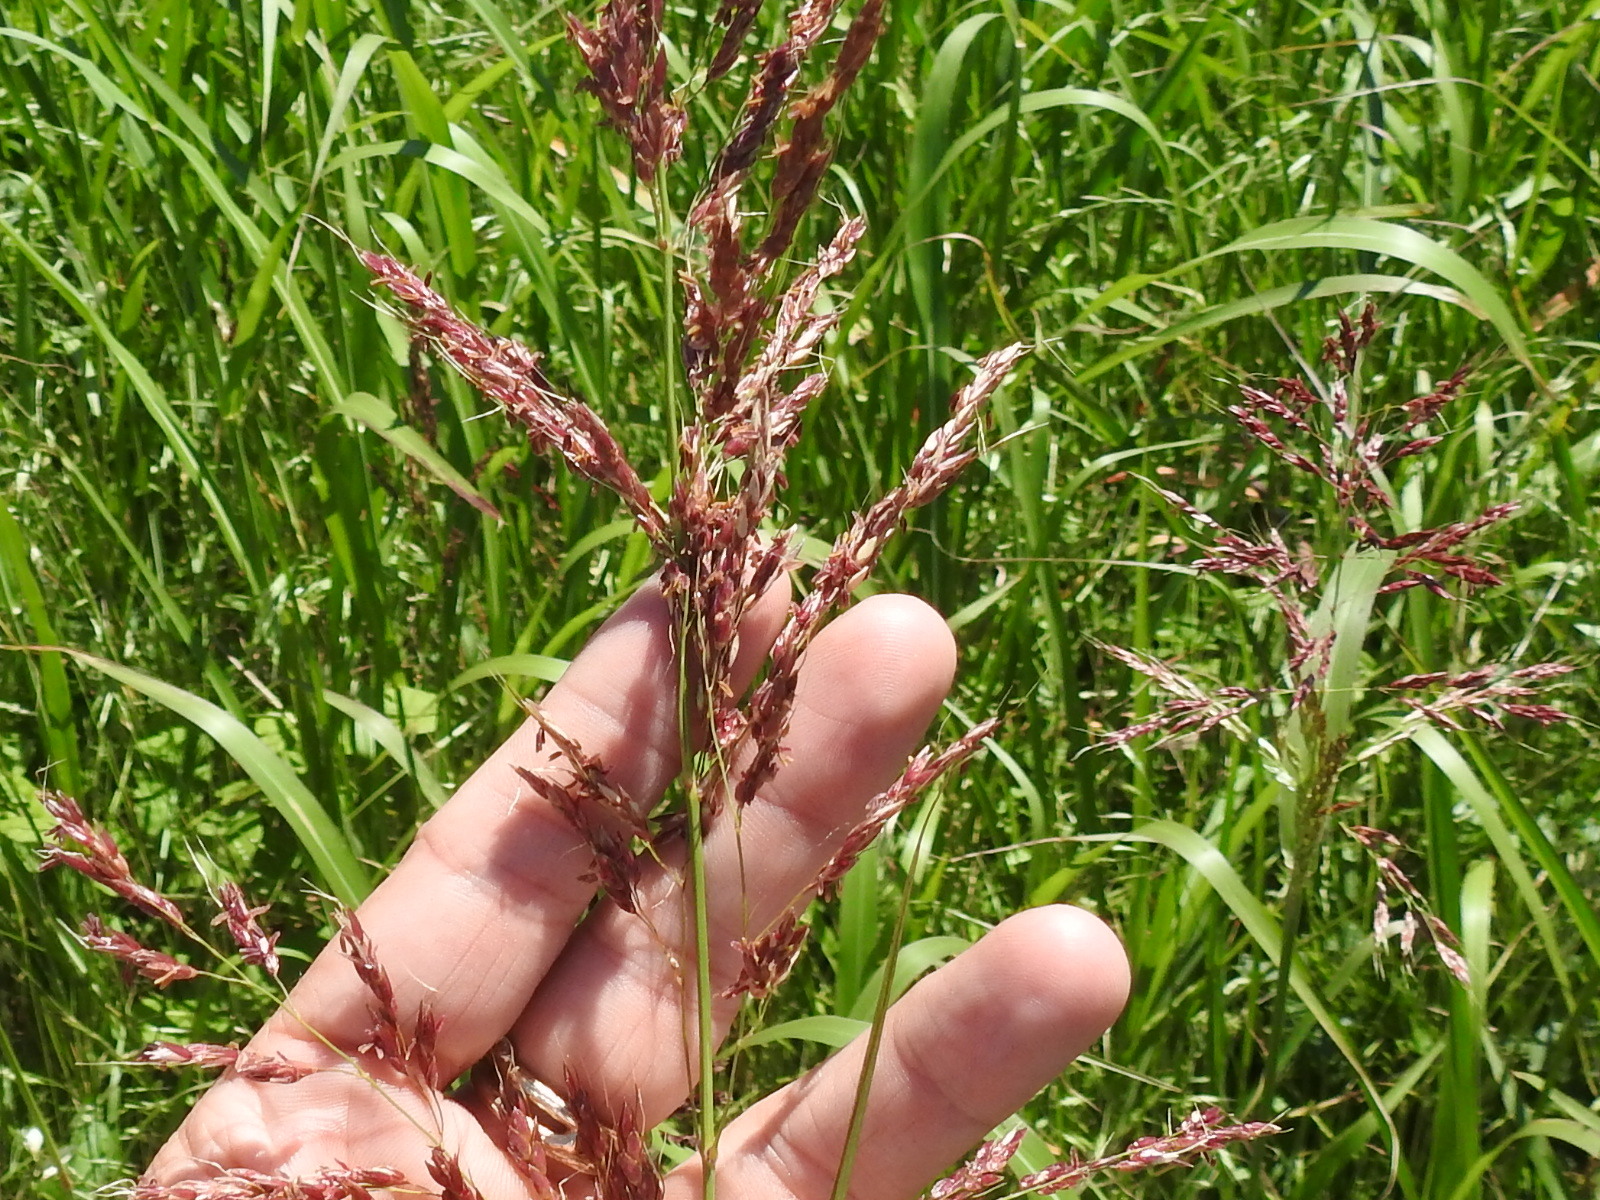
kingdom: Plantae
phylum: Tracheophyta
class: Liliopsida
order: Poales
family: Poaceae
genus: Sorghum
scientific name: Sorghum halepense
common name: Johnson-grass
